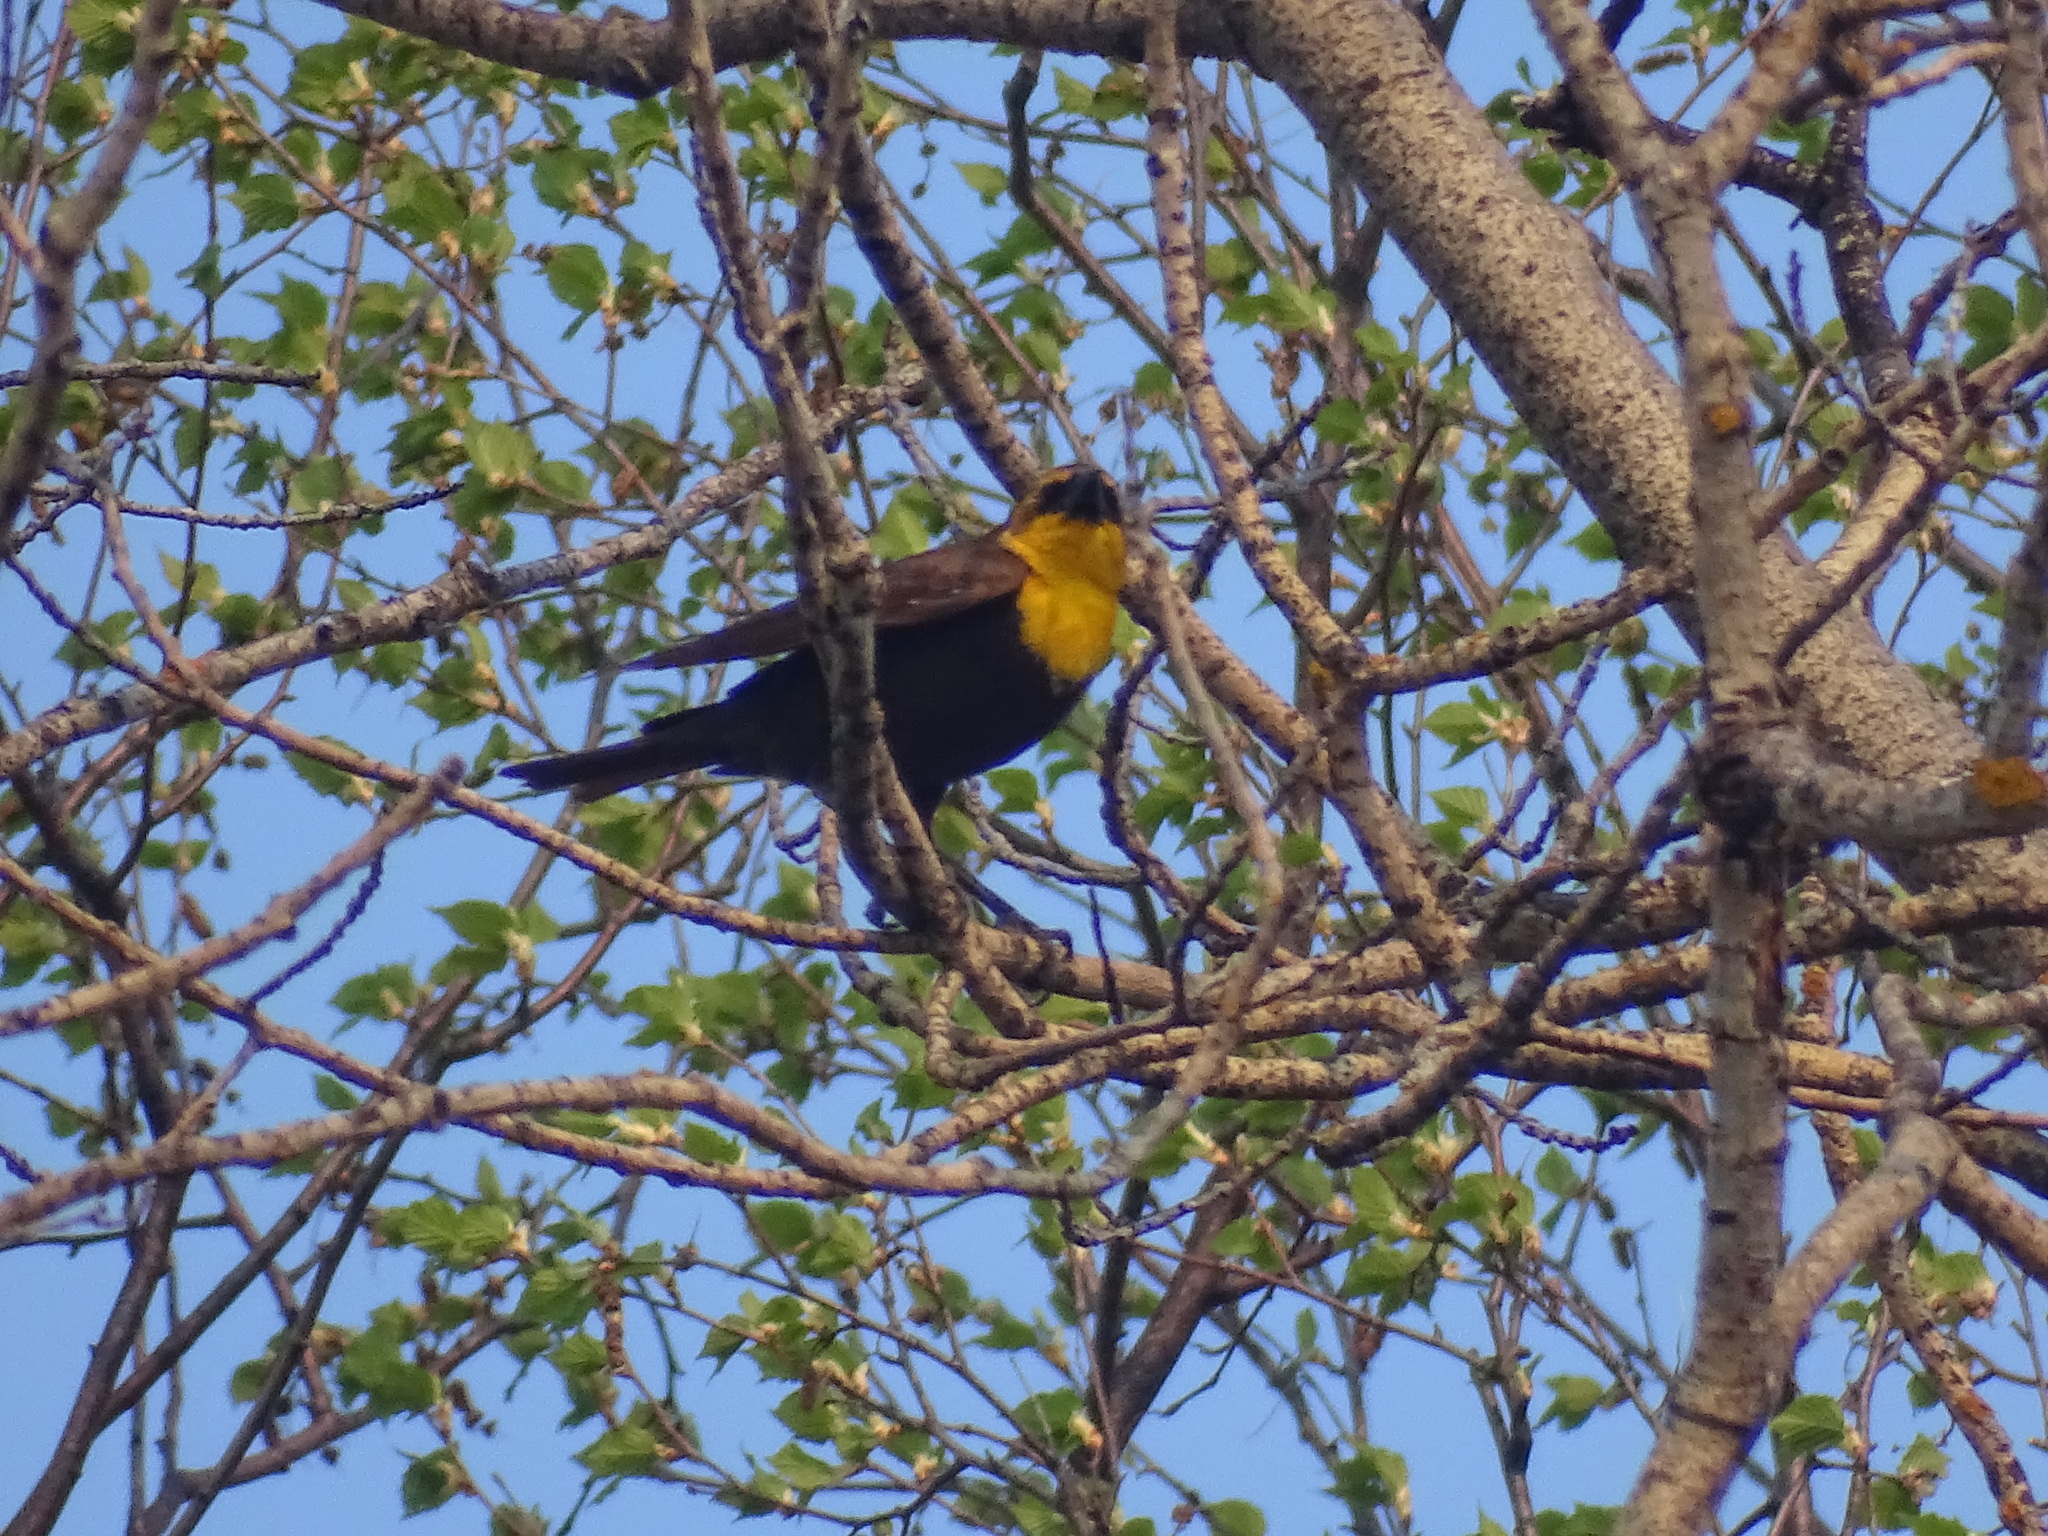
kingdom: Animalia
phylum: Chordata
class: Aves
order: Passeriformes
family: Icteridae
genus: Xanthocephalus
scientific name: Xanthocephalus xanthocephalus
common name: Yellow-headed blackbird
